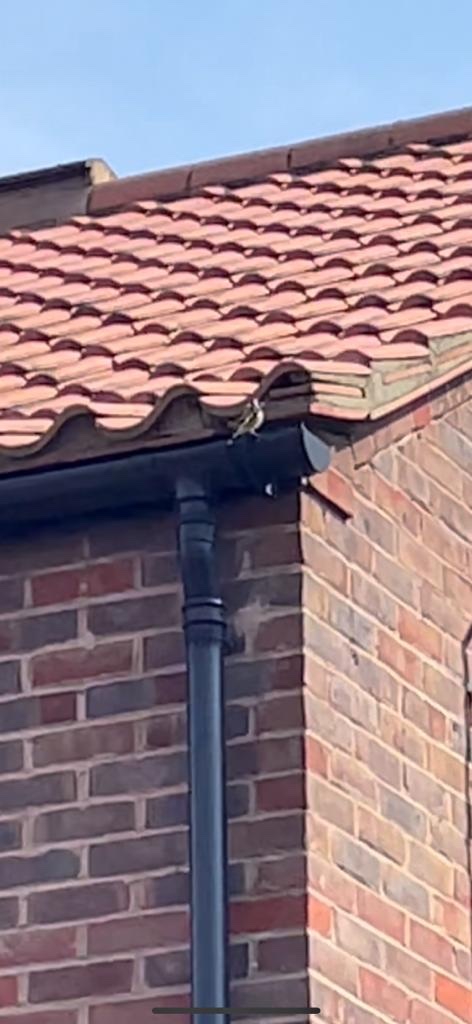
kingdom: Animalia
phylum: Chordata
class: Aves
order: Passeriformes
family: Fringillidae
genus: Carduelis
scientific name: Carduelis carduelis
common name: European goldfinch
